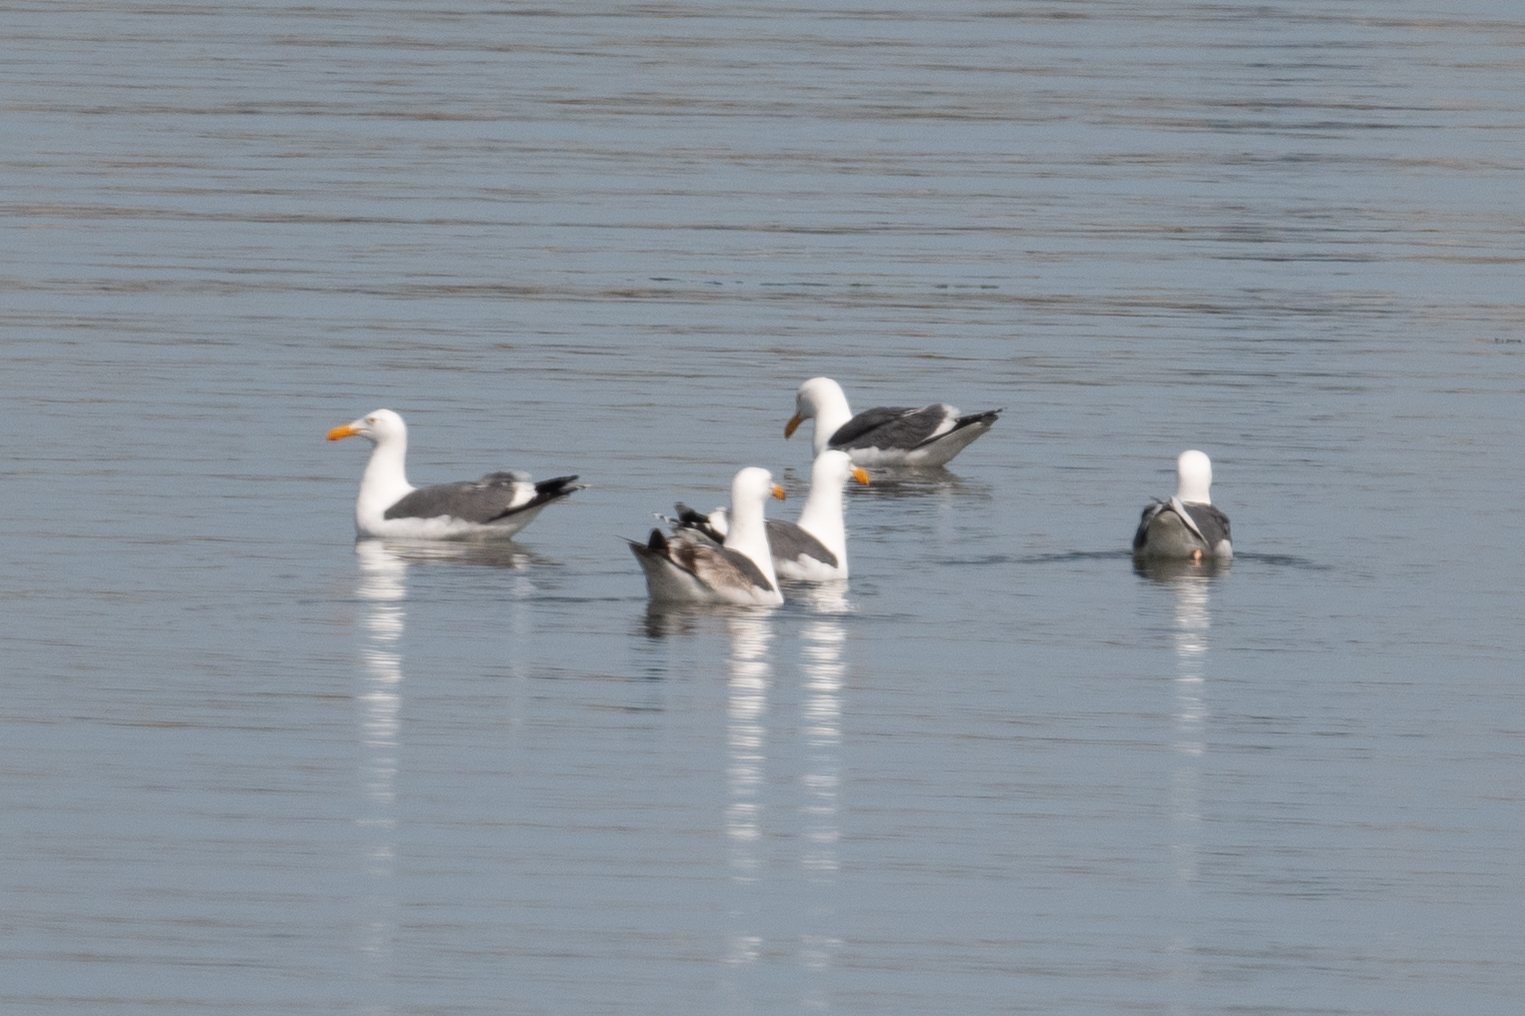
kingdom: Animalia
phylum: Chordata
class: Aves
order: Charadriiformes
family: Laridae
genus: Larus
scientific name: Larus occidentalis
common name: Western gull
